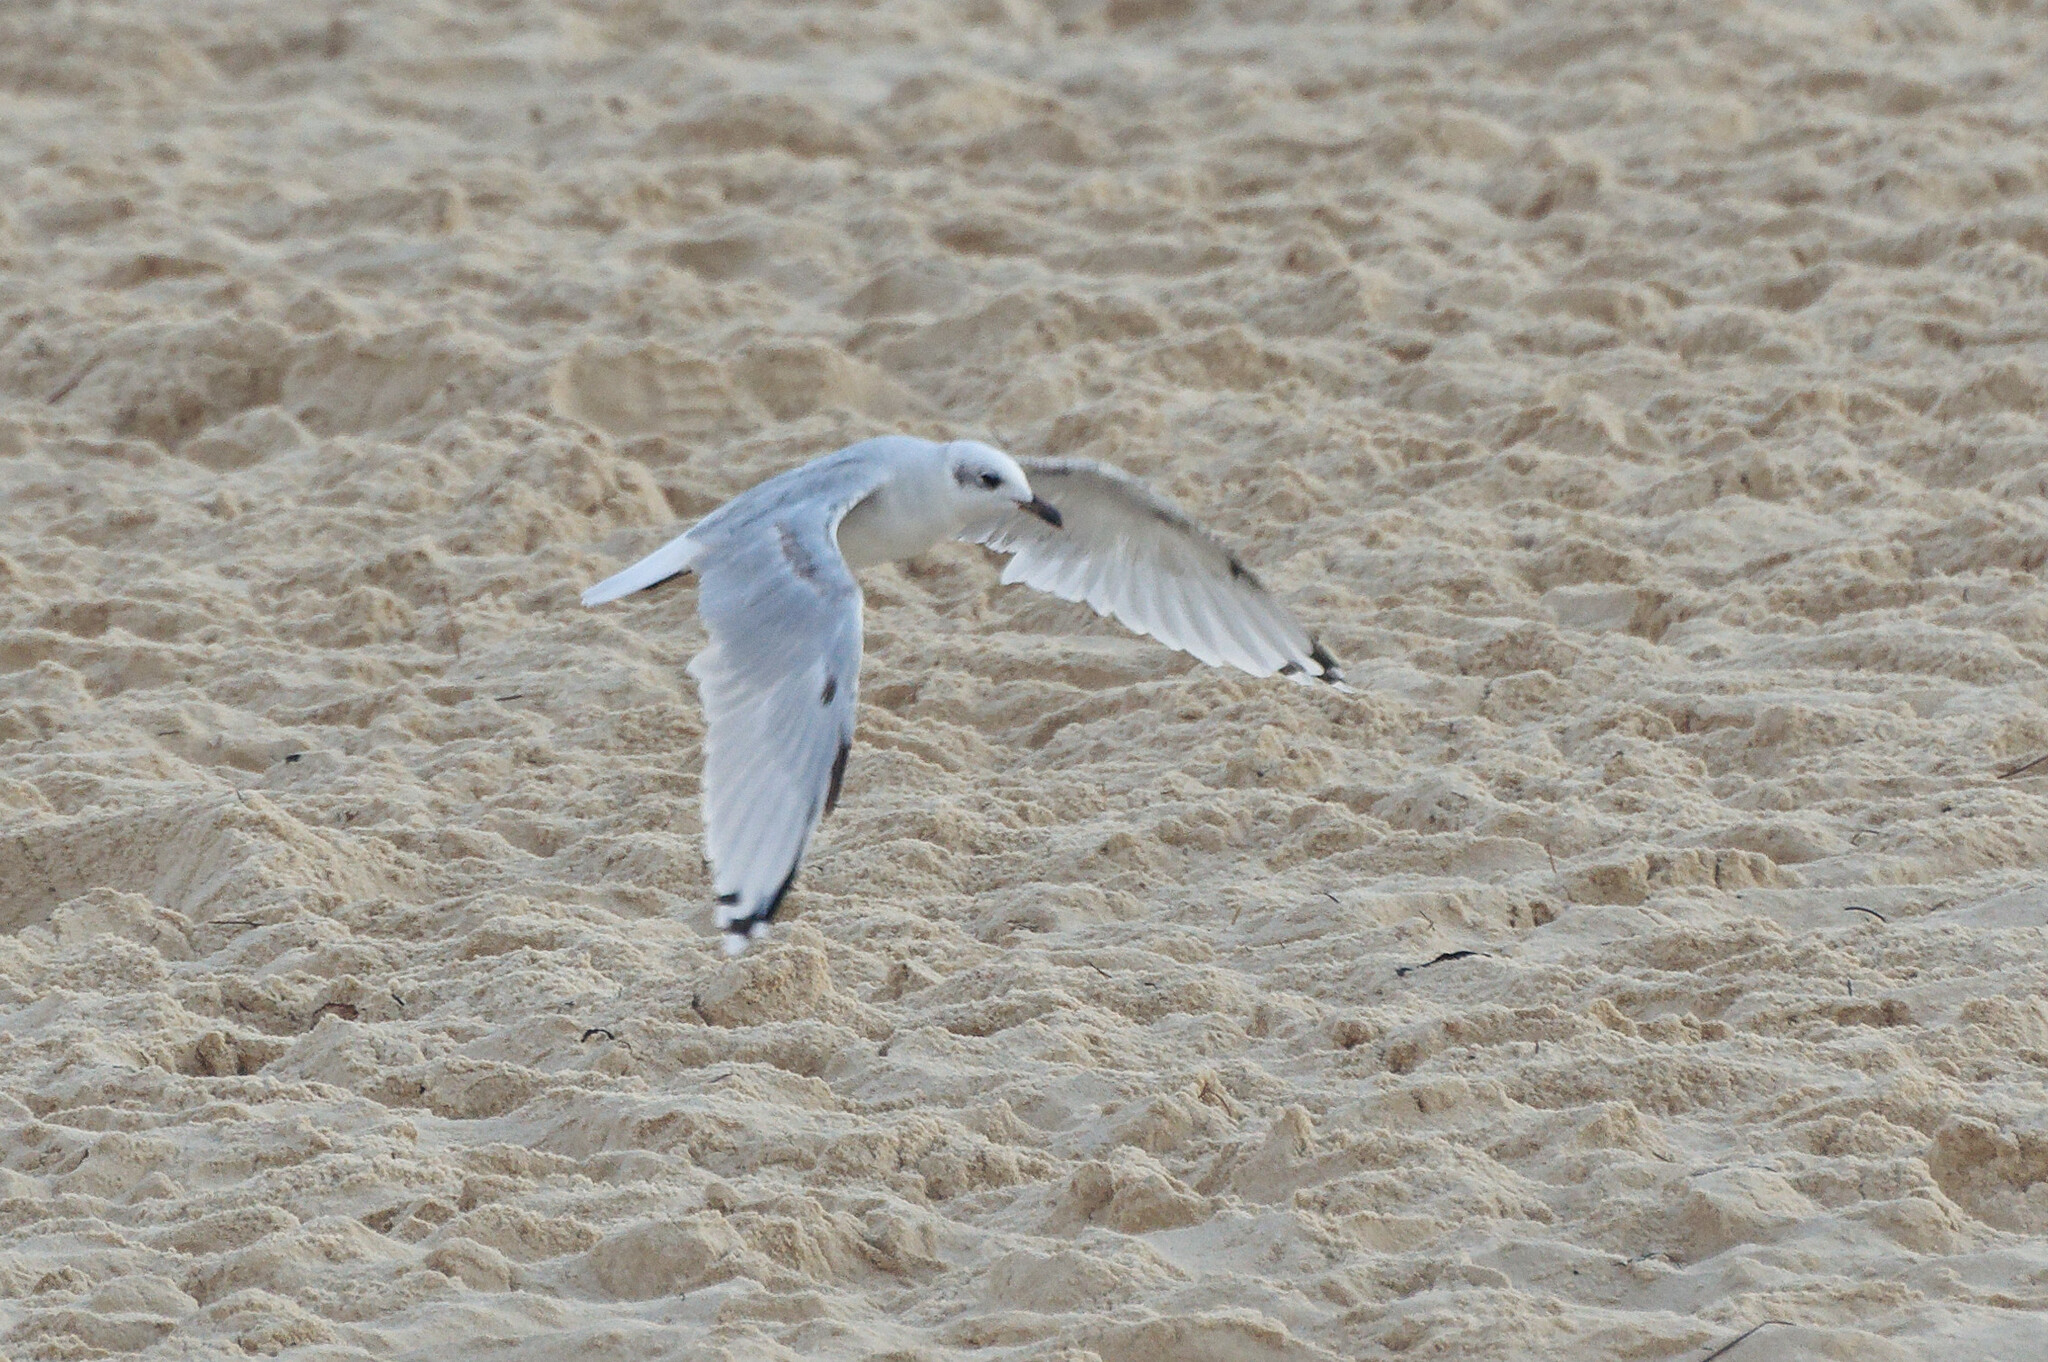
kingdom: Animalia
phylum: Chordata
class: Aves
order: Charadriiformes
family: Laridae
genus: Ichthyaetus
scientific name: Ichthyaetus melanocephalus
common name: Mediterranean gull
